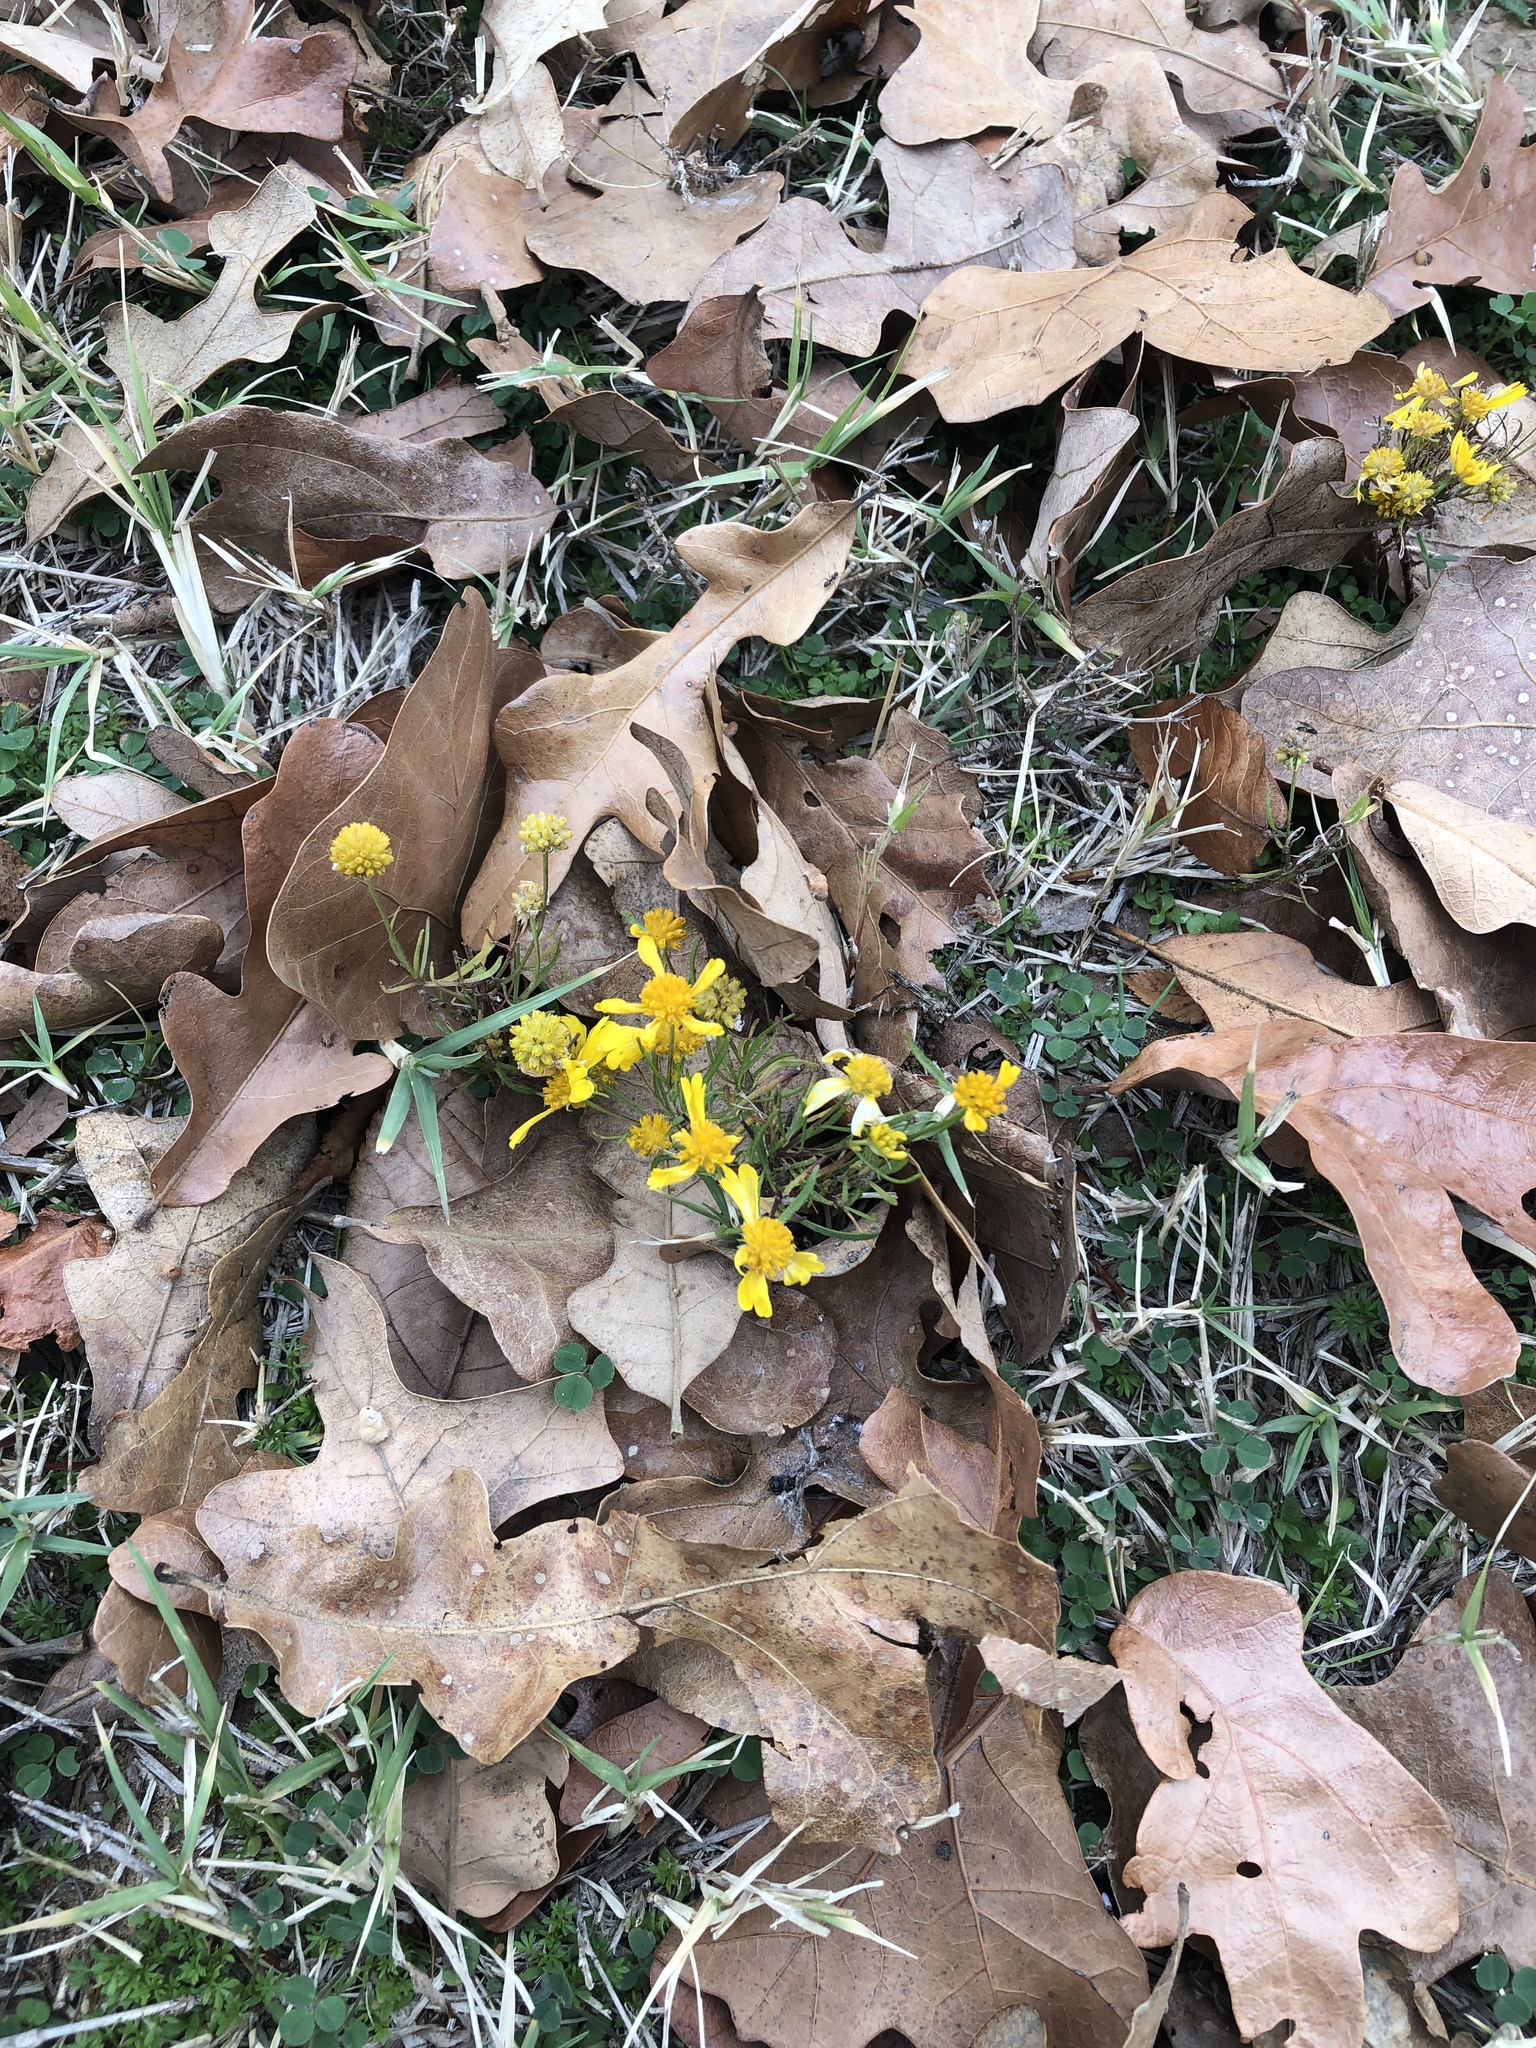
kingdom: Plantae
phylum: Tracheophyta
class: Magnoliopsida
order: Asterales
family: Asteraceae
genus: Helenium
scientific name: Helenium amarum
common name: Bitter sneezeweed
